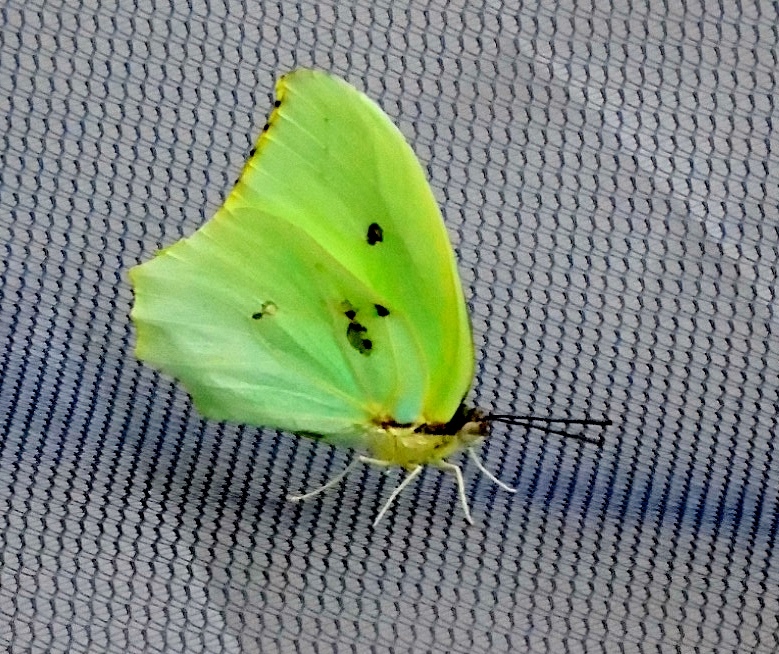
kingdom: Animalia
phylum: Arthropoda
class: Insecta
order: Lepidoptera
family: Pieridae
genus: Anteos
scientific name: Anteos maerula
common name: Angled sulphur
